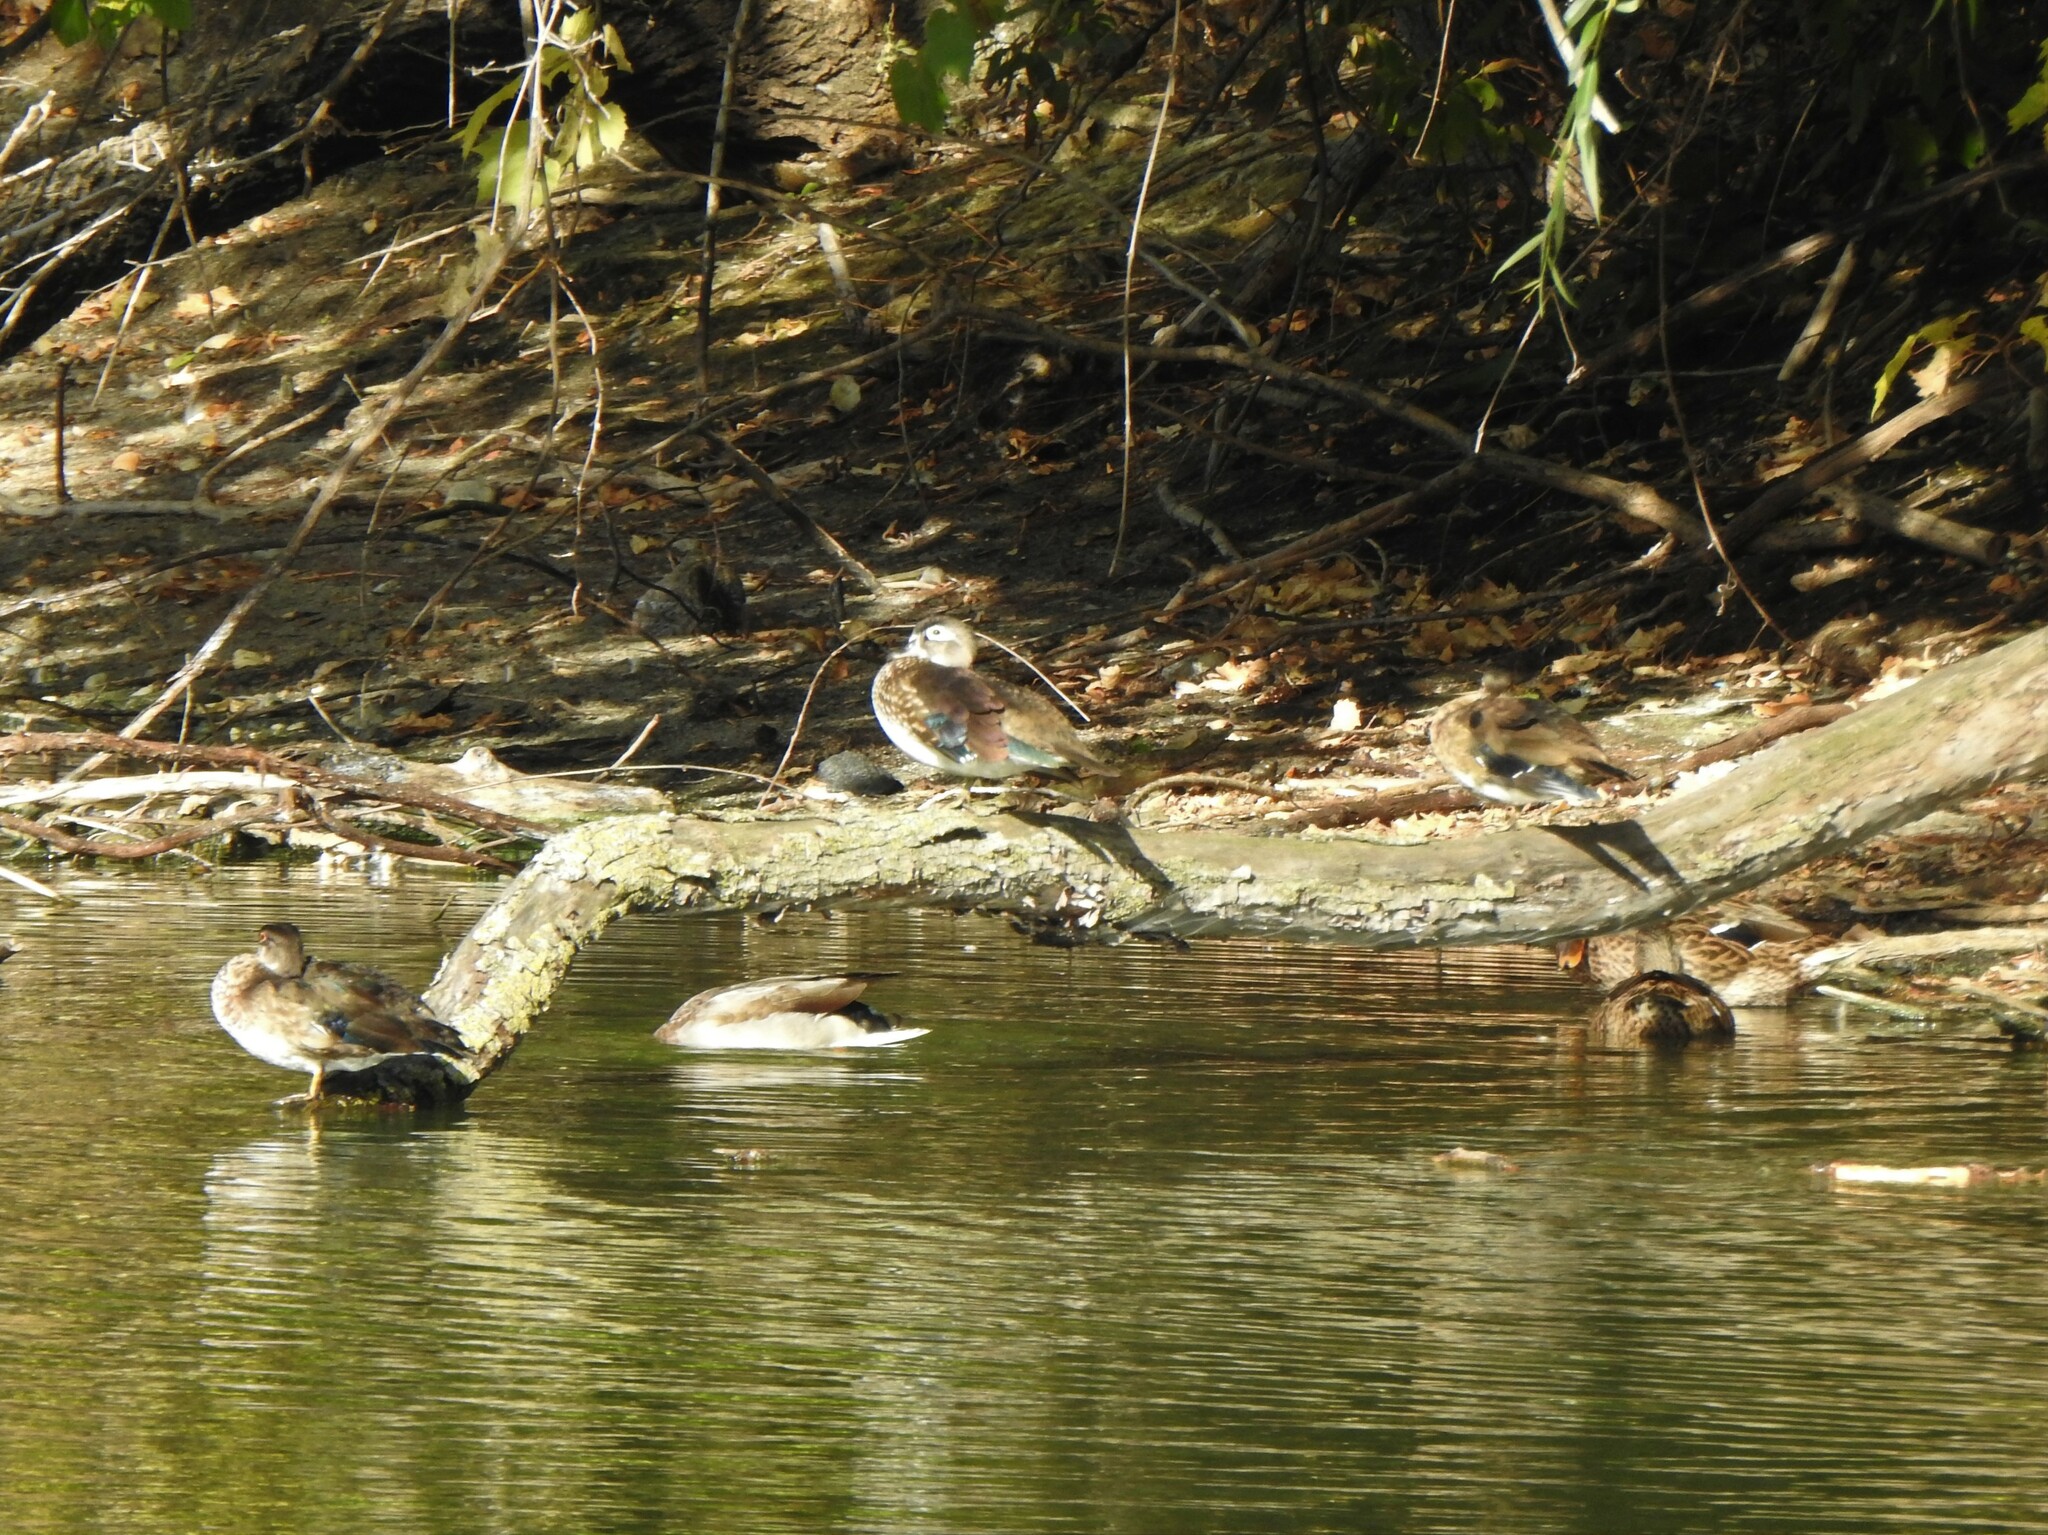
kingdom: Animalia
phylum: Chordata
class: Aves
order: Anseriformes
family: Anatidae
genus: Aix
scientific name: Aix sponsa
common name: Wood duck
